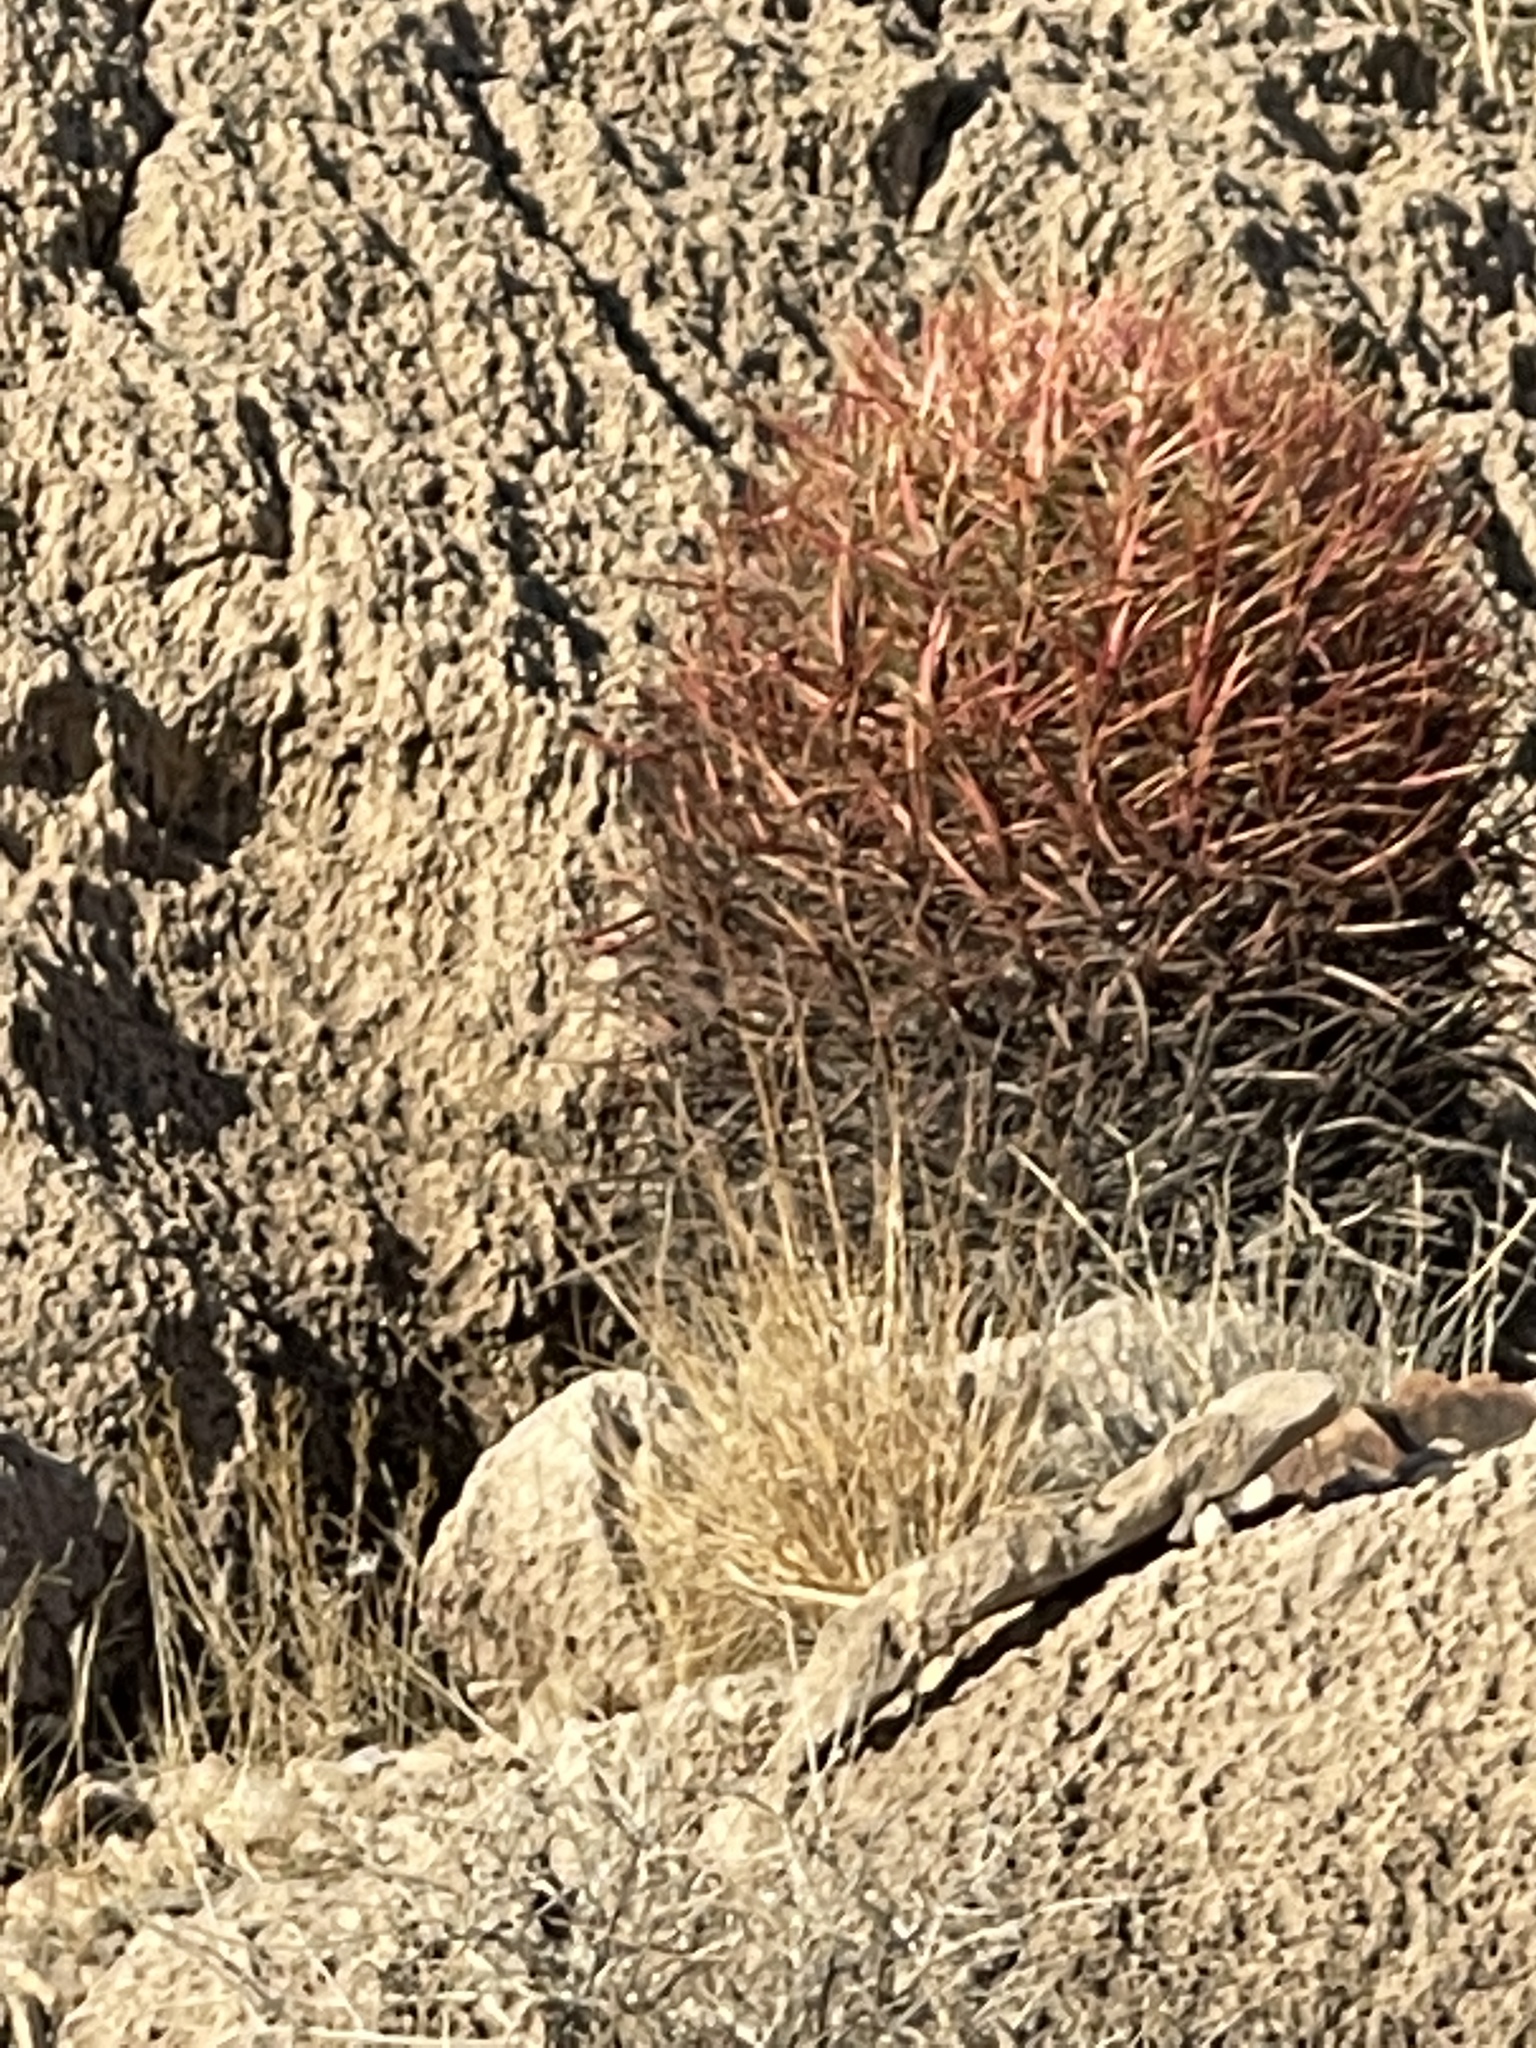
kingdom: Plantae
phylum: Tracheophyta
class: Magnoliopsida
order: Caryophyllales
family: Cactaceae
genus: Ferocactus
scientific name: Ferocactus cylindraceus
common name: California barrel cactus
